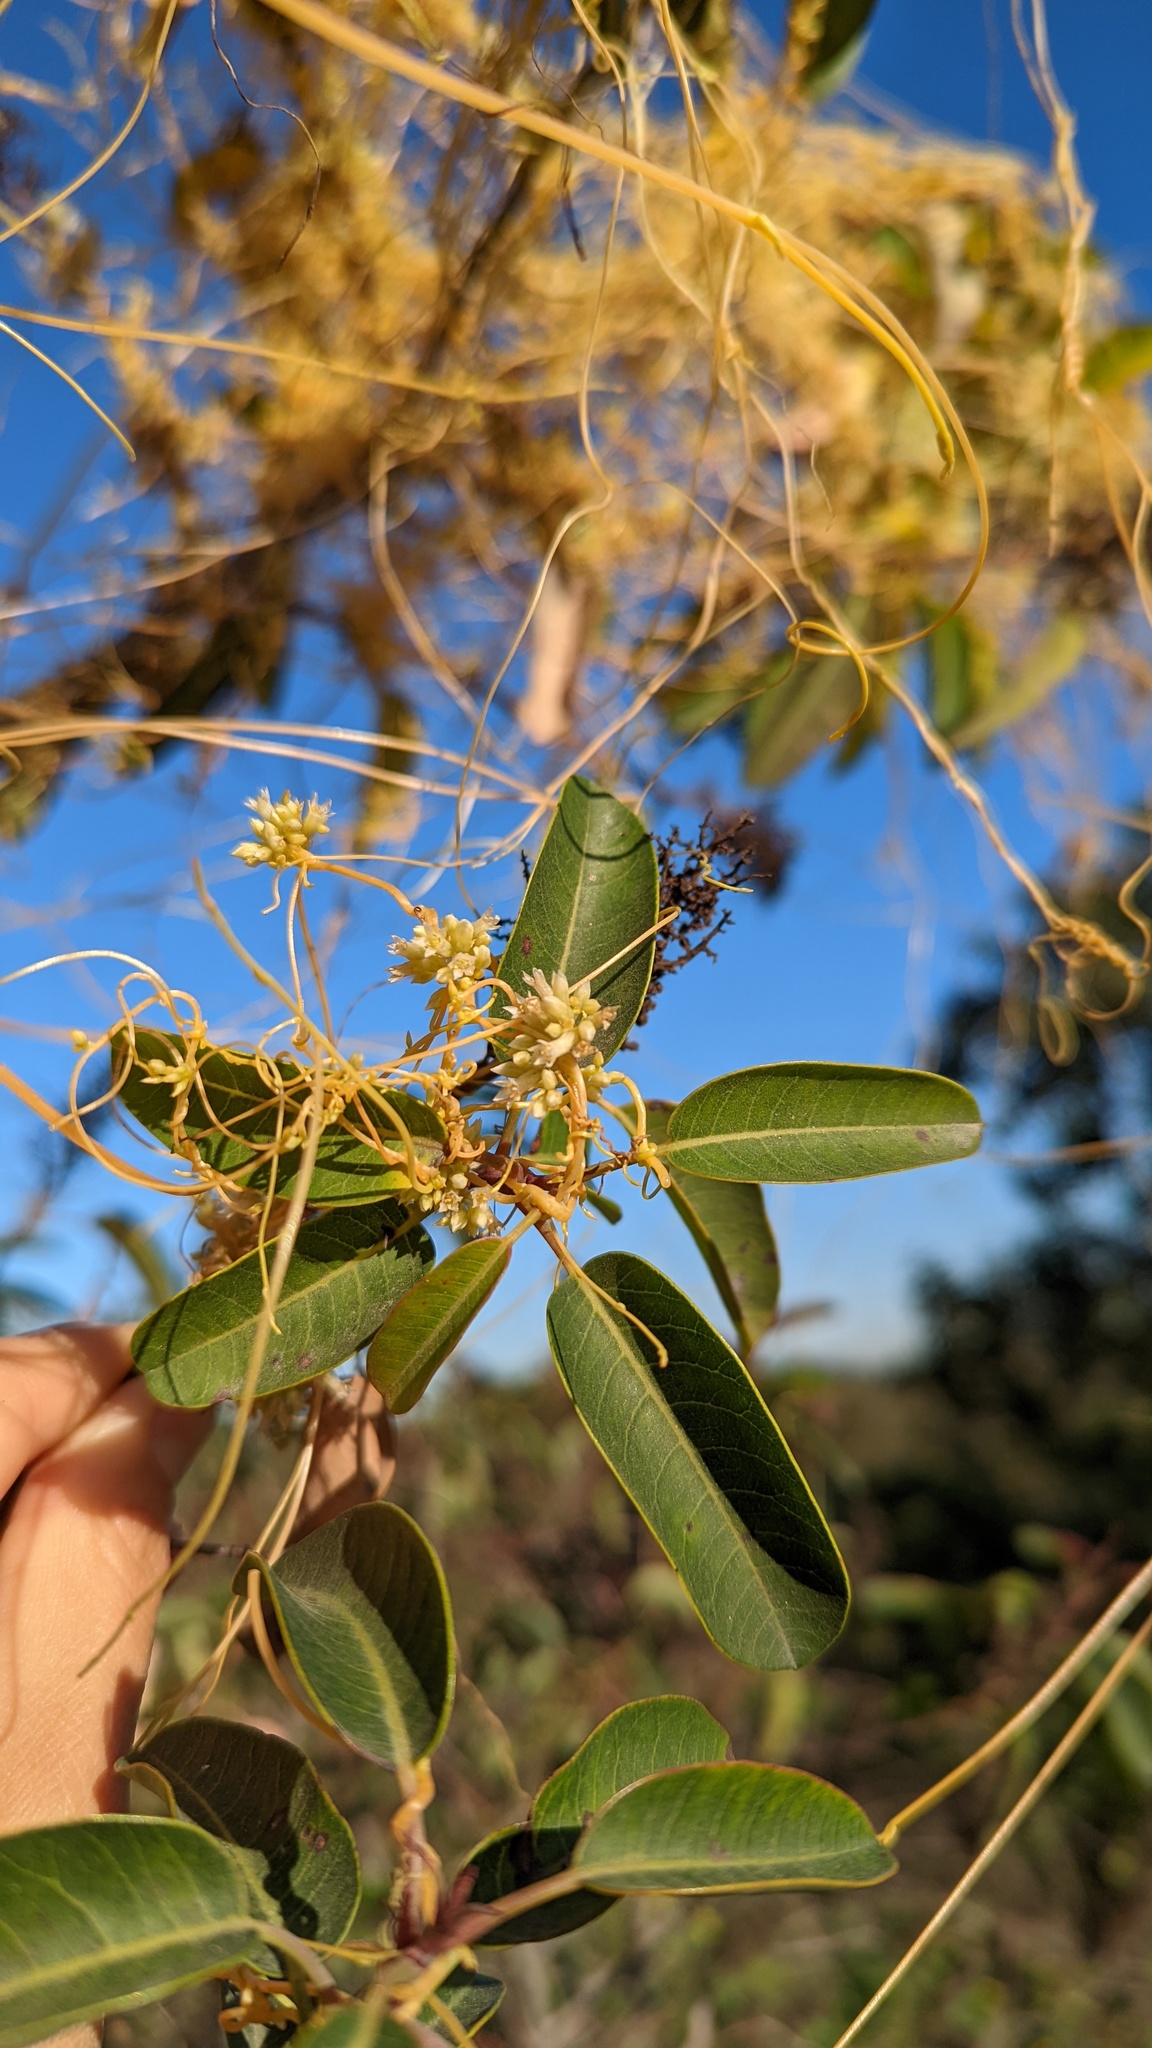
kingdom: Plantae
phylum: Tracheophyta
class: Magnoliopsida
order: Solanales
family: Convolvulaceae
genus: Cuscuta
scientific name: Cuscuta subinclusa
